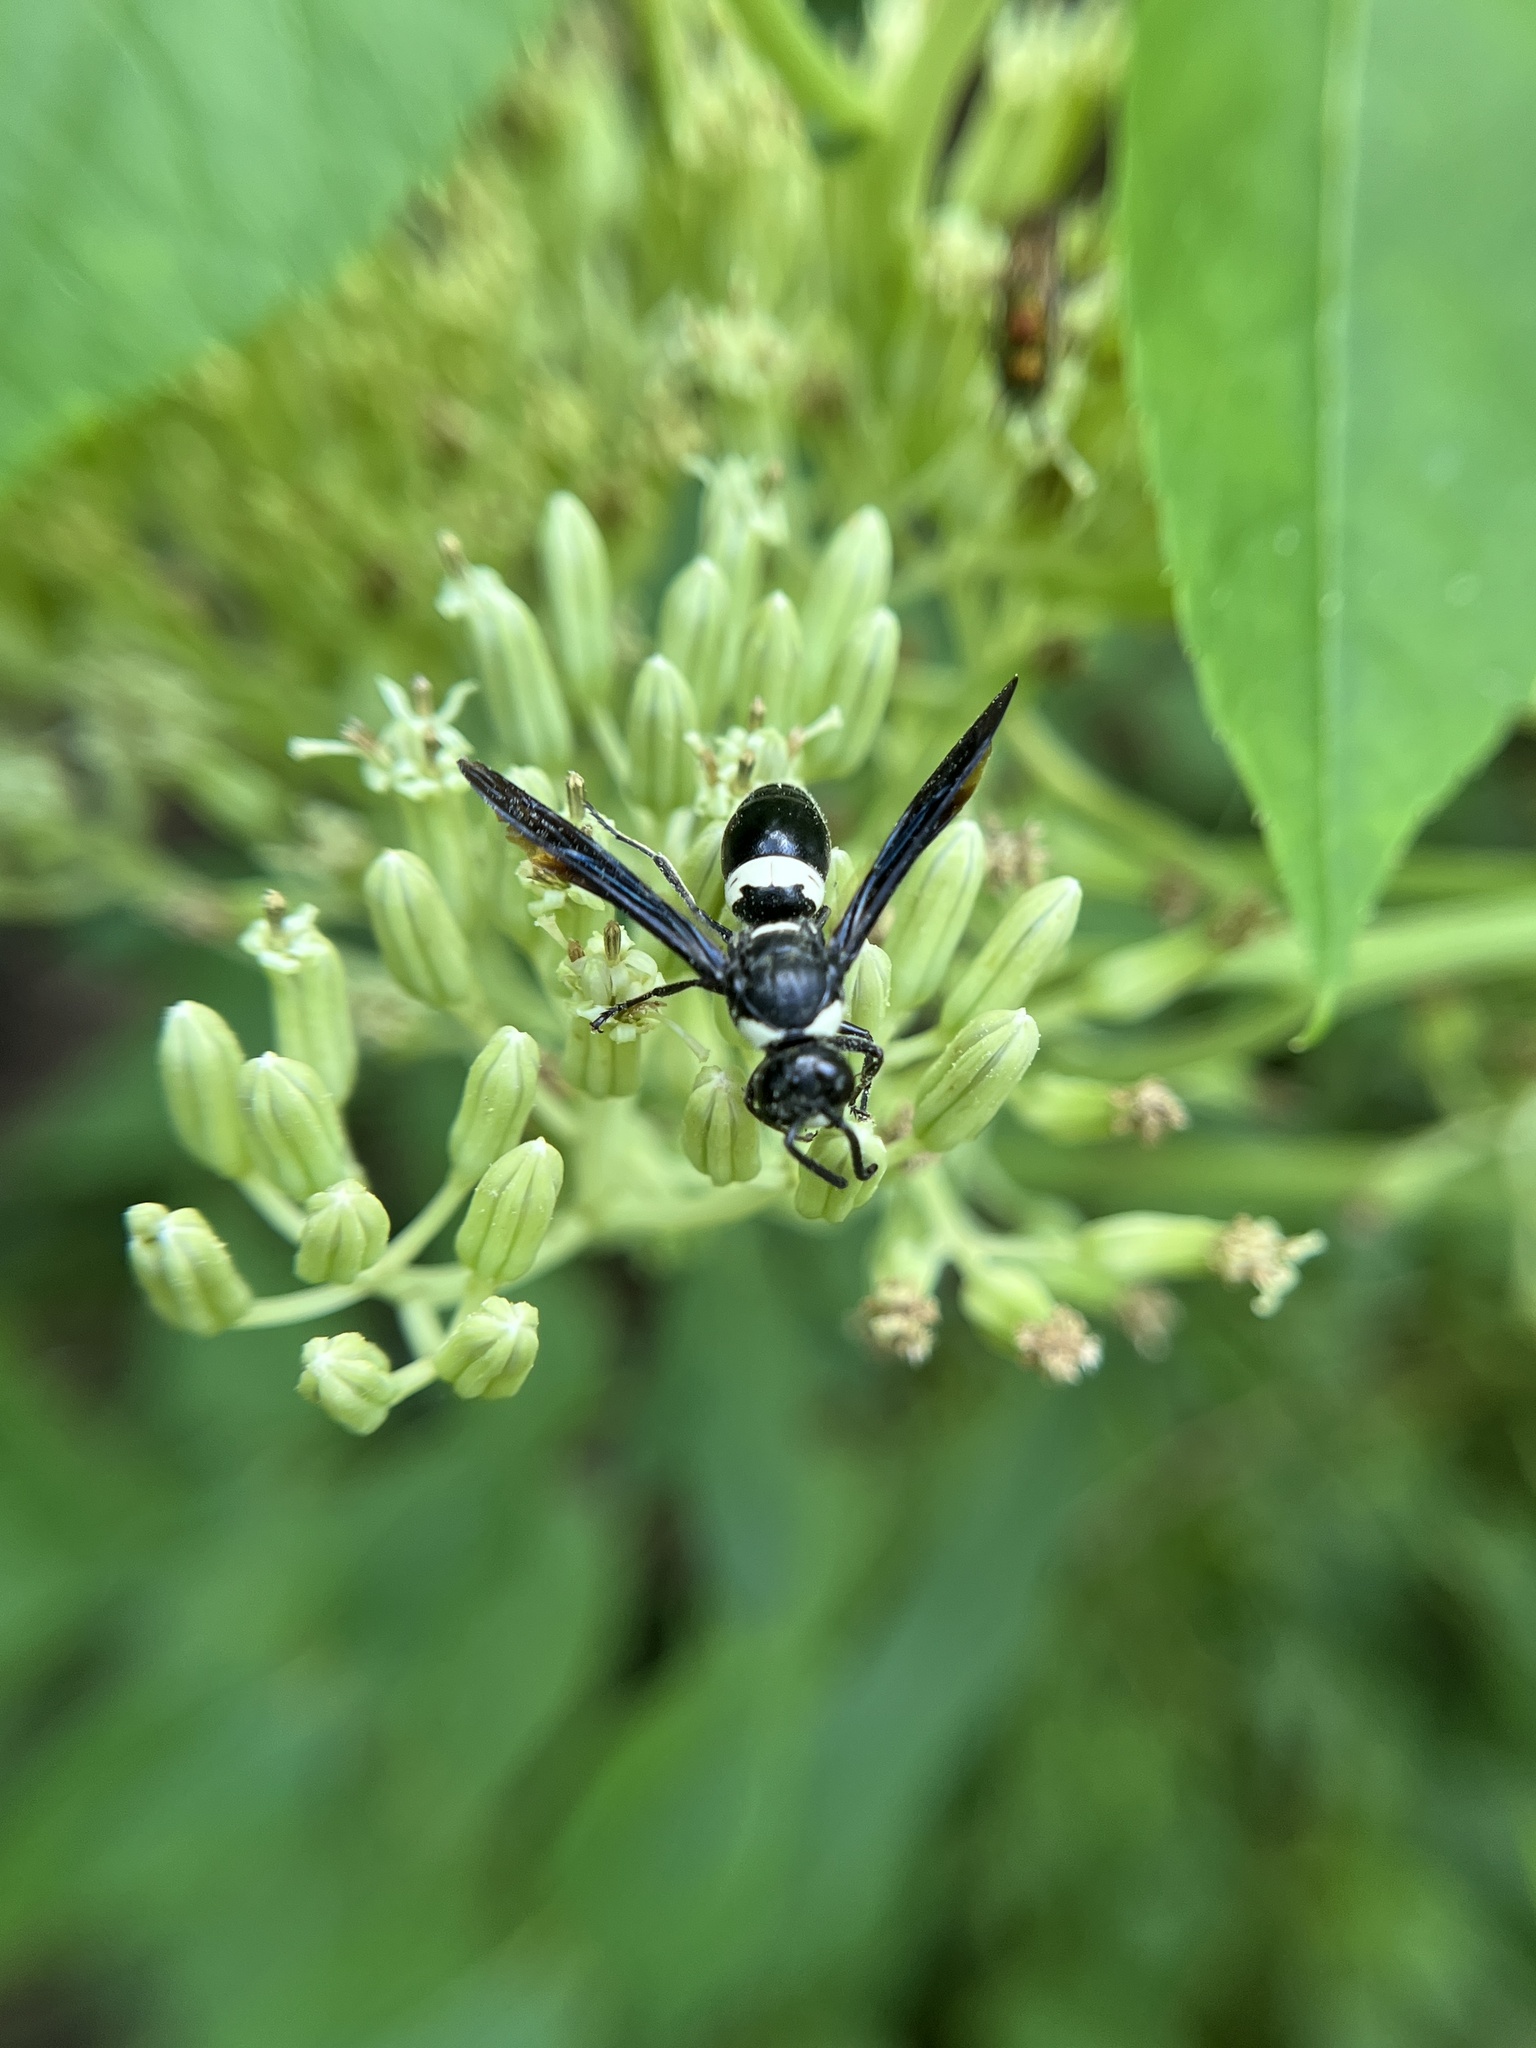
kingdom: Animalia
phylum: Arthropoda
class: Insecta
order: Hymenoptera
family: Eumenidae
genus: Monobia
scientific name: Monobia quadridens
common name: Four-toothed mason wasp
